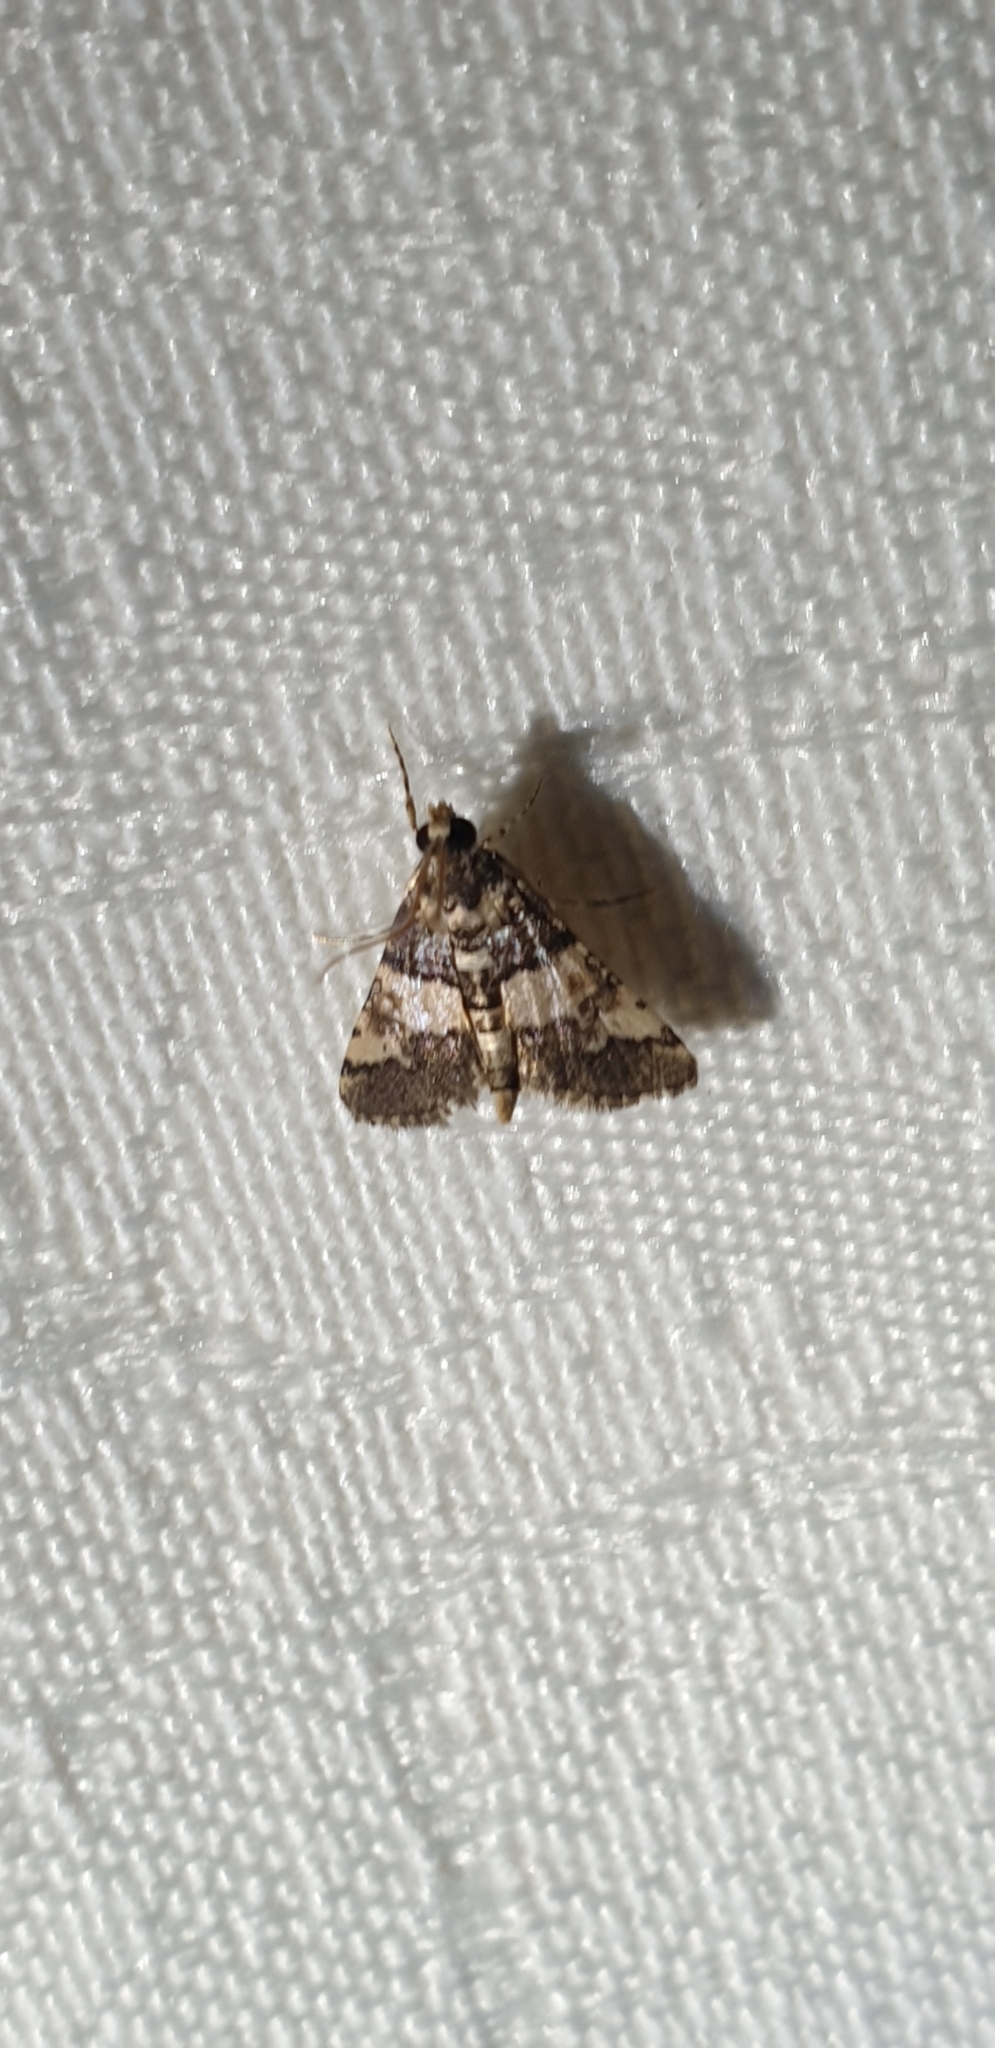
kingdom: Animalia
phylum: Arthropoda
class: Insecta
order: Lepidoptera
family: Crambidae
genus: Nacoleia
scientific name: Nacoleia mesochlora
